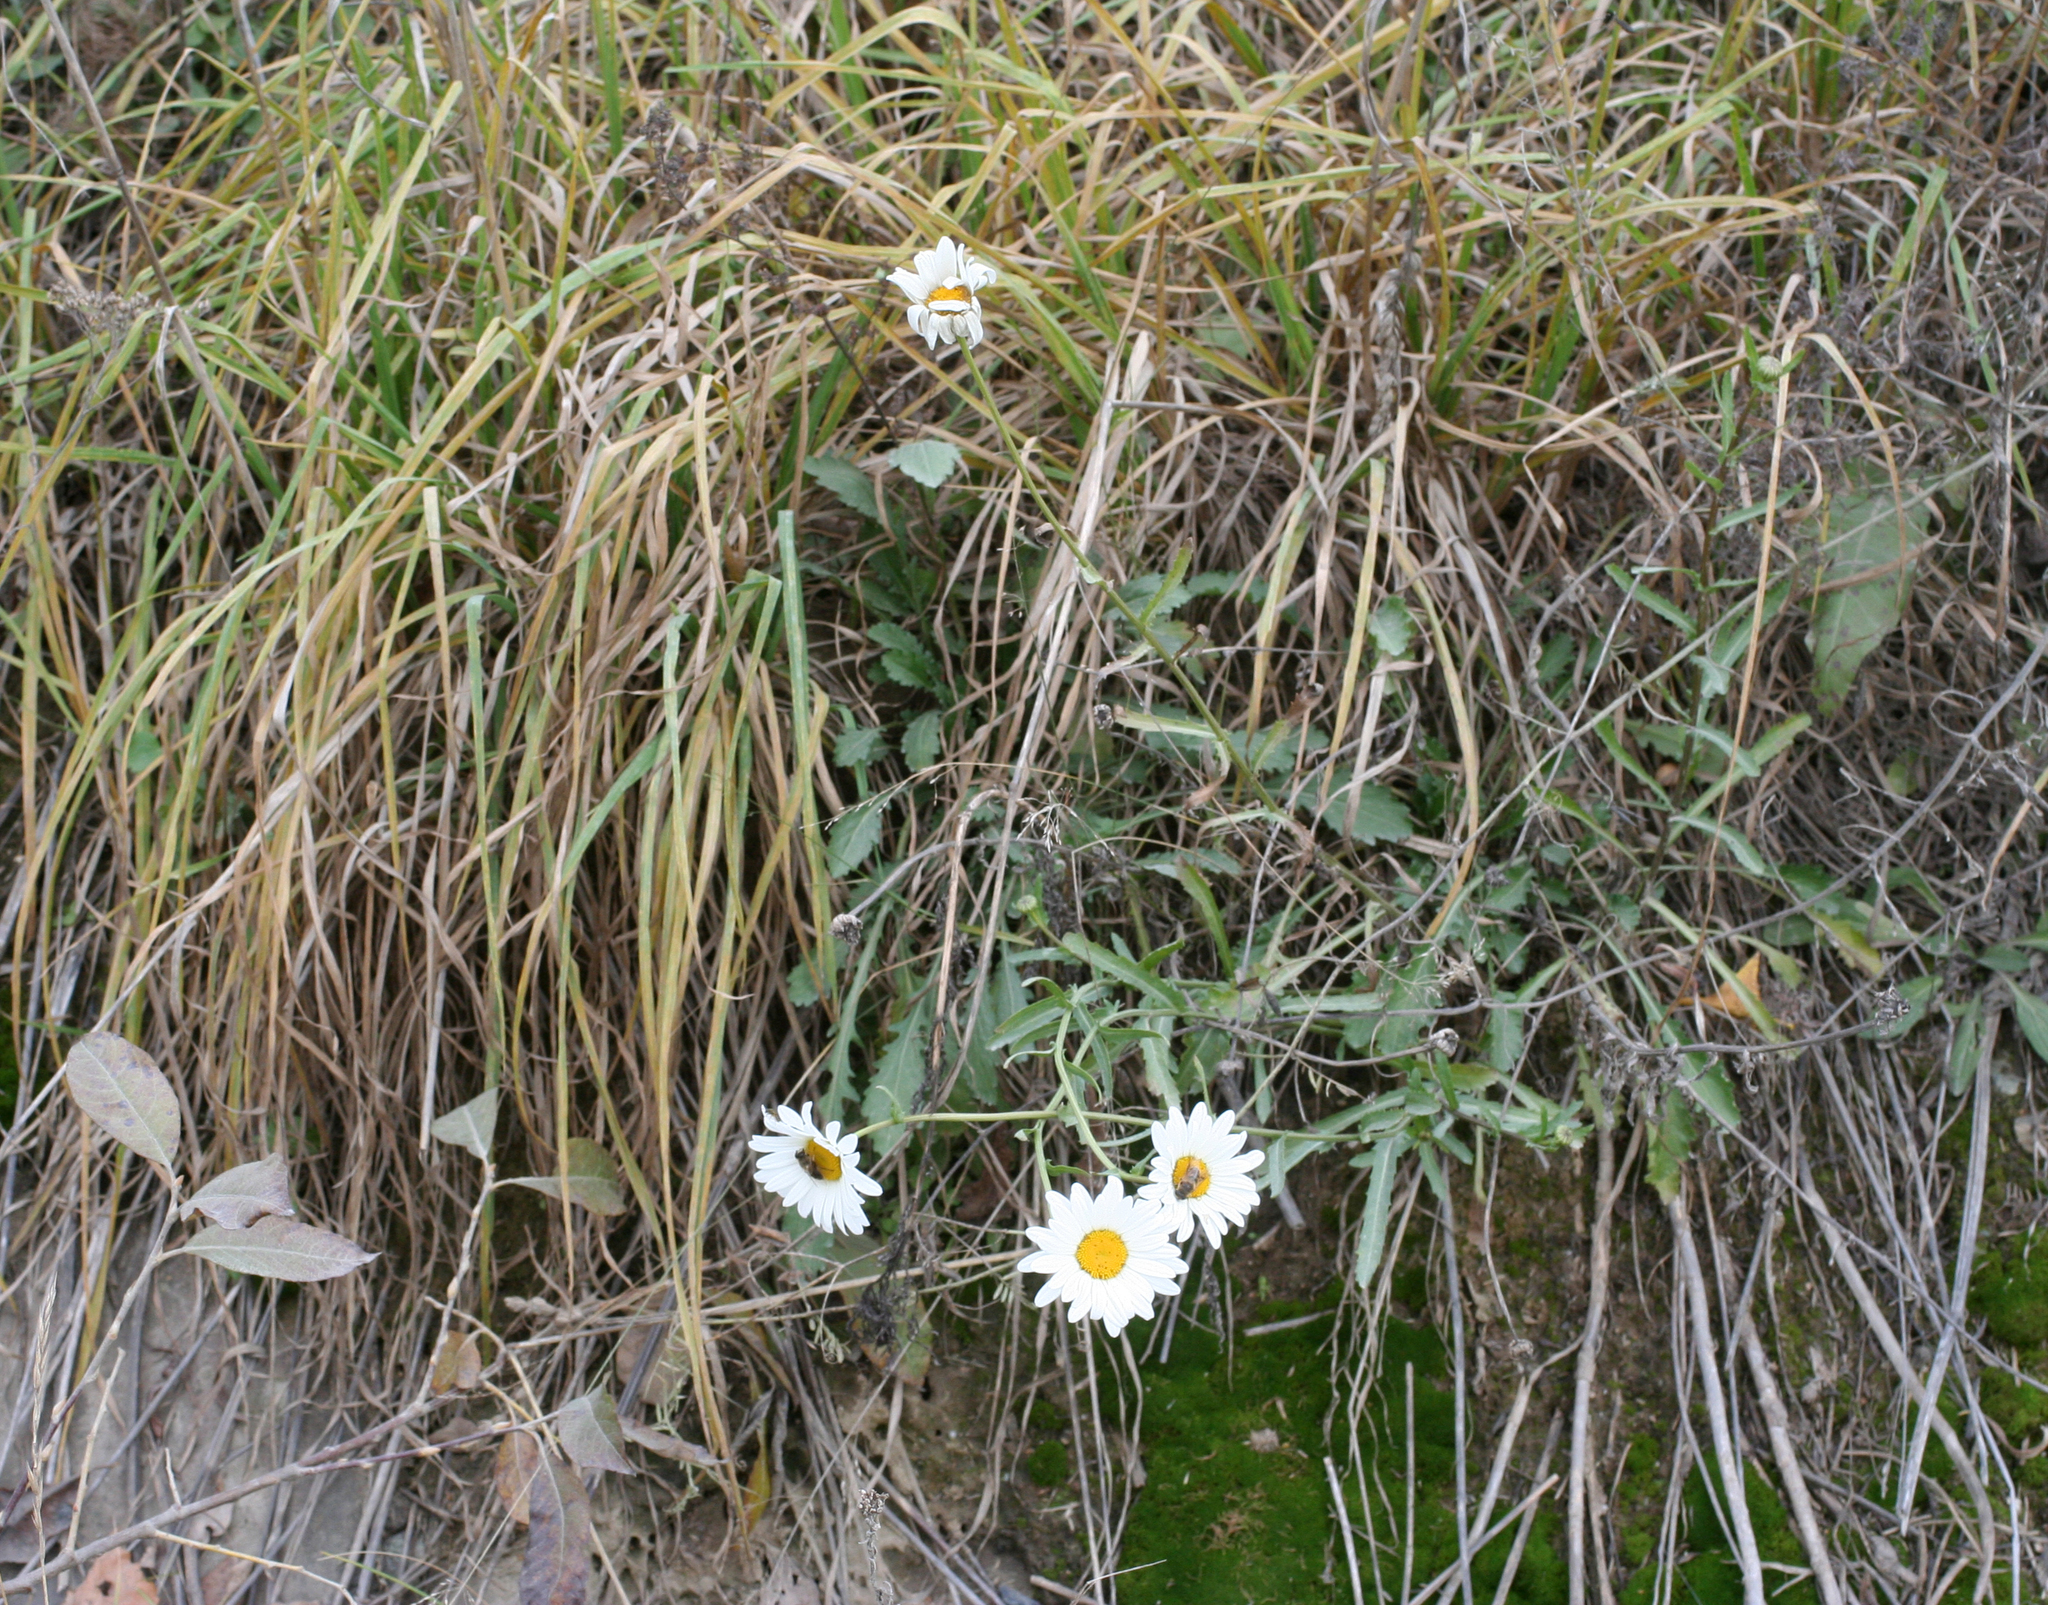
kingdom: Plantae
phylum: Tracheophyta
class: Magnoliopsida
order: Asterales
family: Asteraceae
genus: Leucanthemum
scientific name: Leucanthemum ircutianum
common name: Daisy
